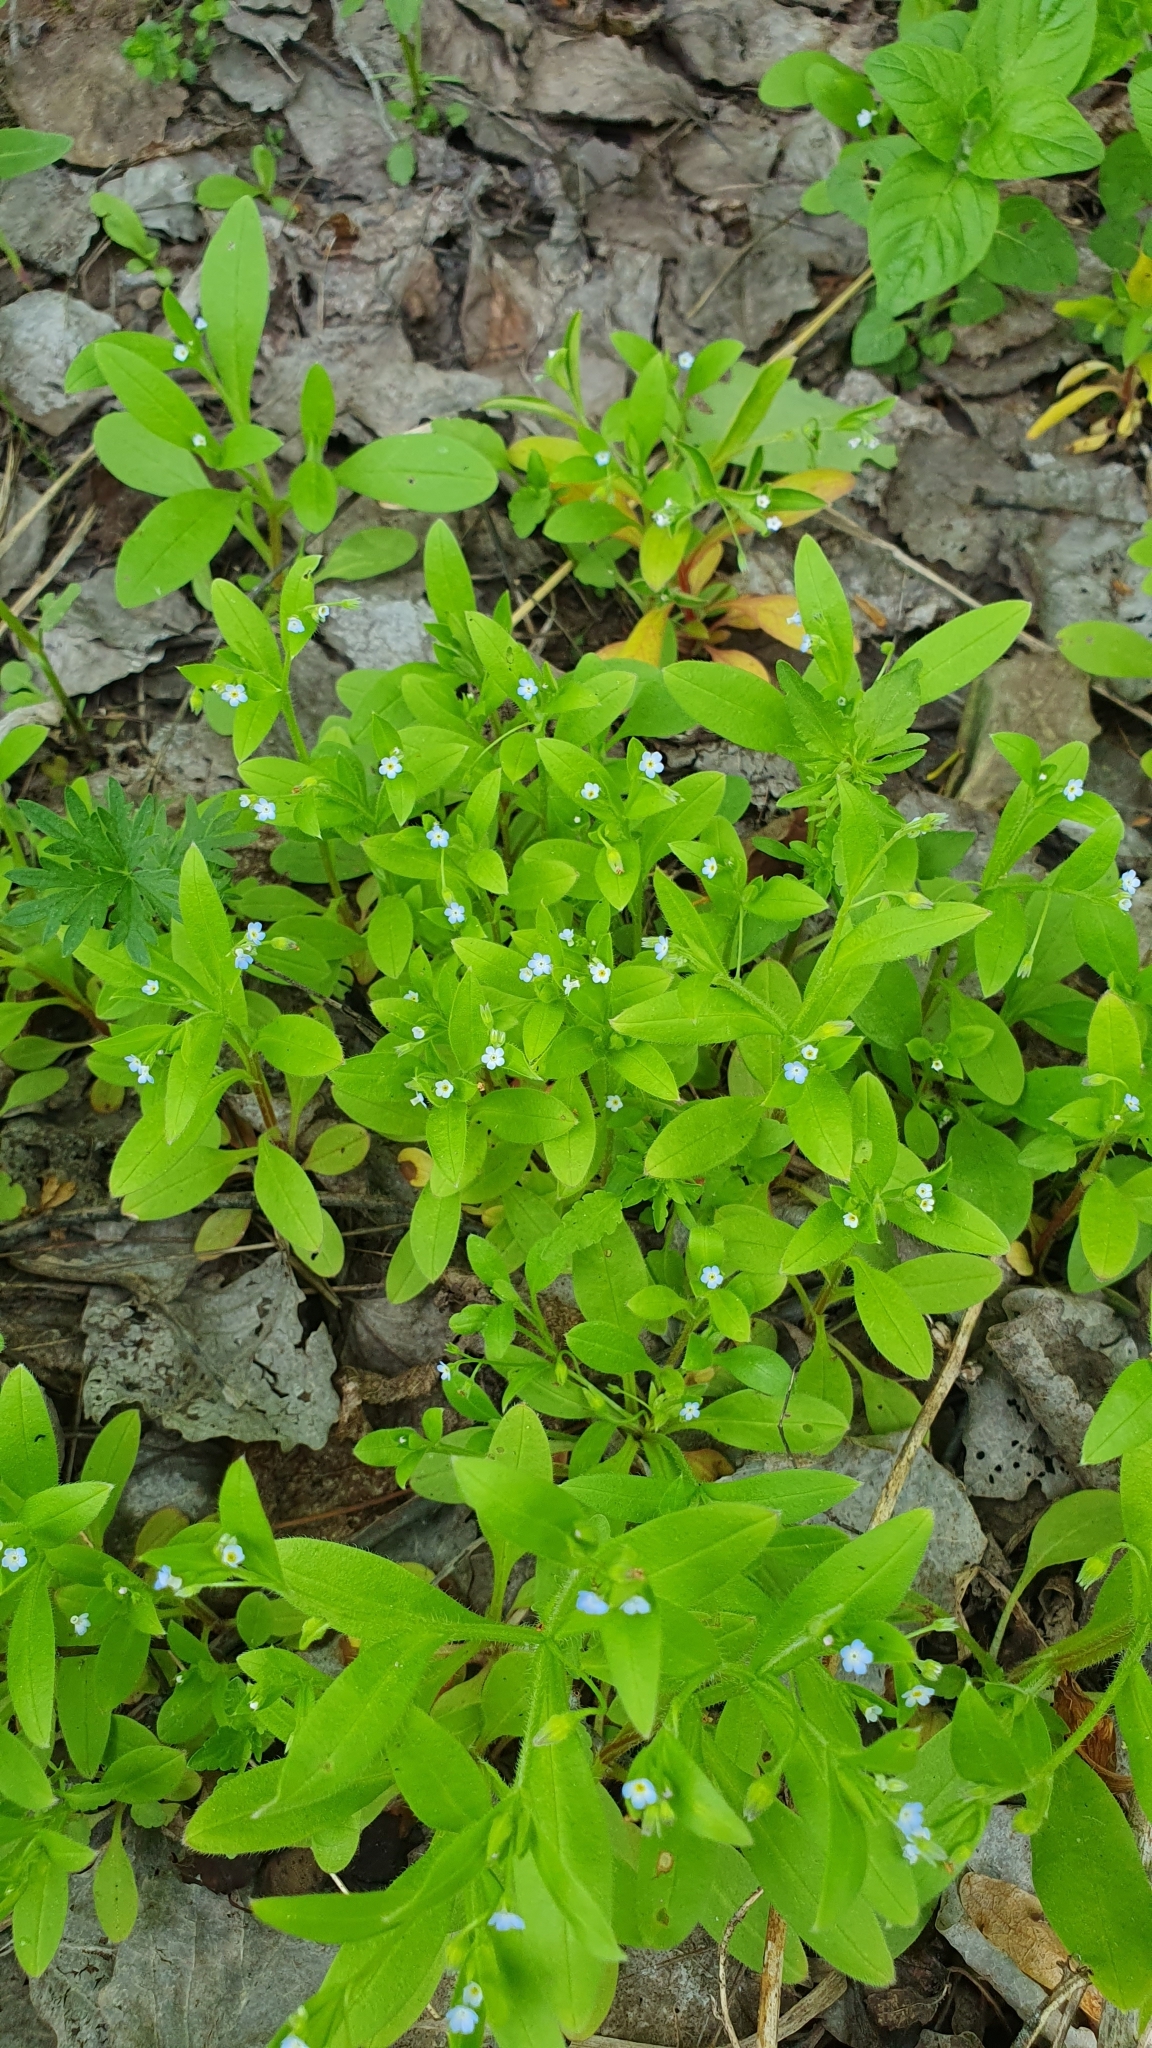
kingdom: Plantae
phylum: Tracheophyta
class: Magnoliopsida
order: Boraginales
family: Boraginaceae
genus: Myosotis
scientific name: Myosotis sparsiflora
